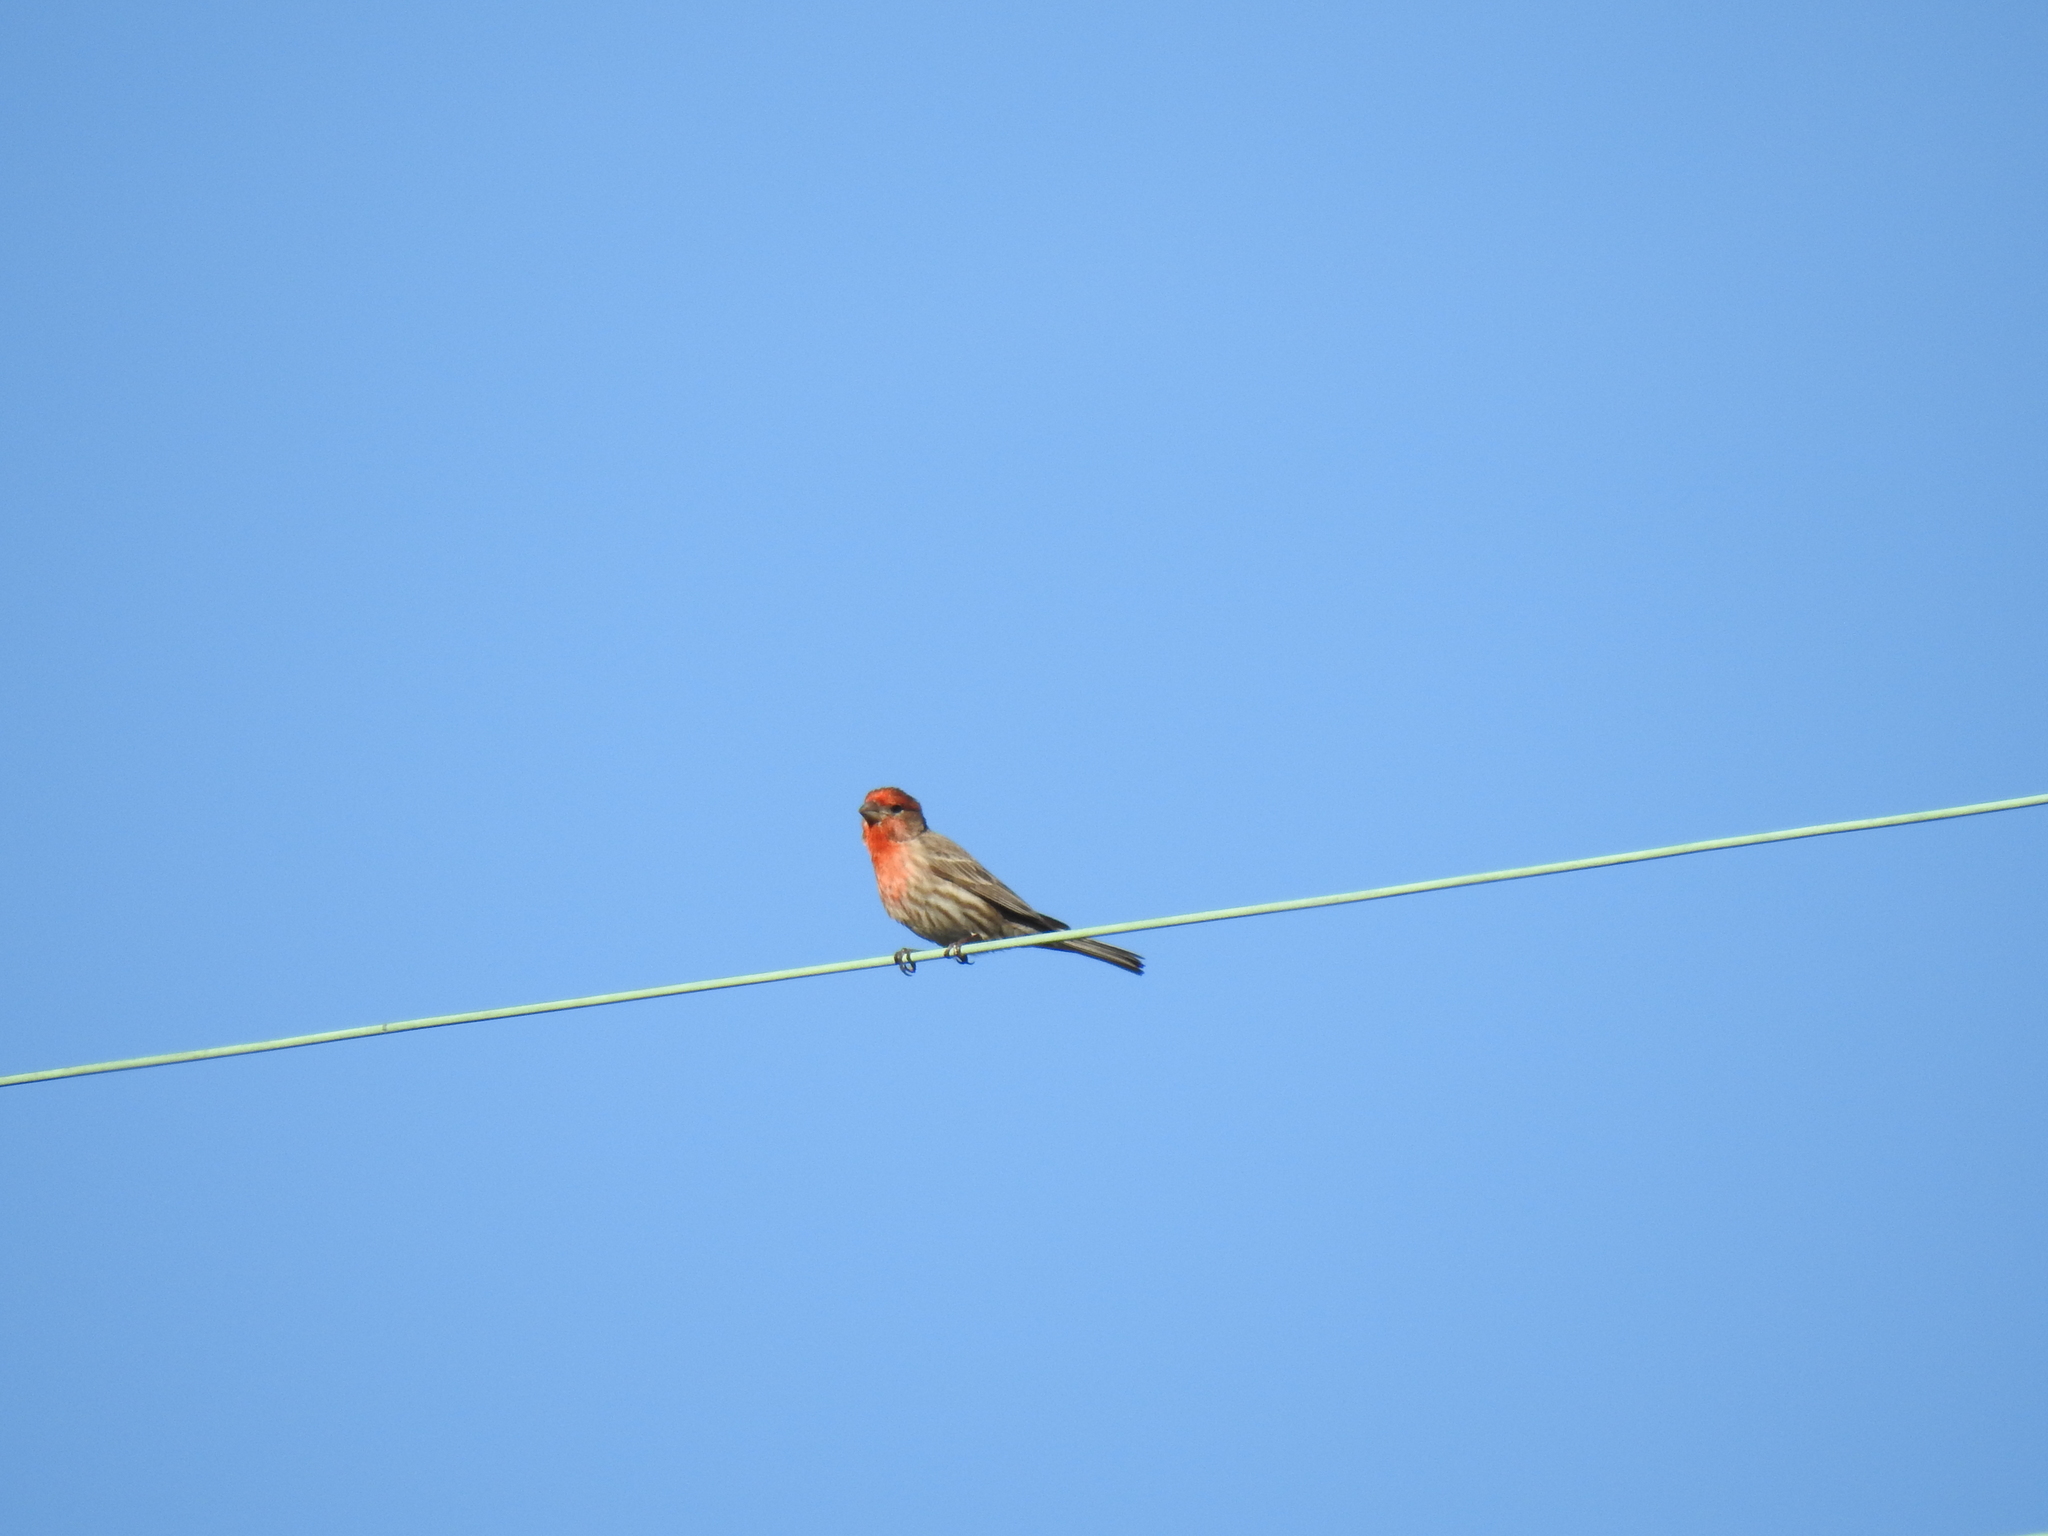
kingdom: Animalia
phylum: Chordata
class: Aves
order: Passeriformes
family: Fringillidae
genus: Haemorhous
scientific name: Haemorhous mexicanus
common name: House finch
